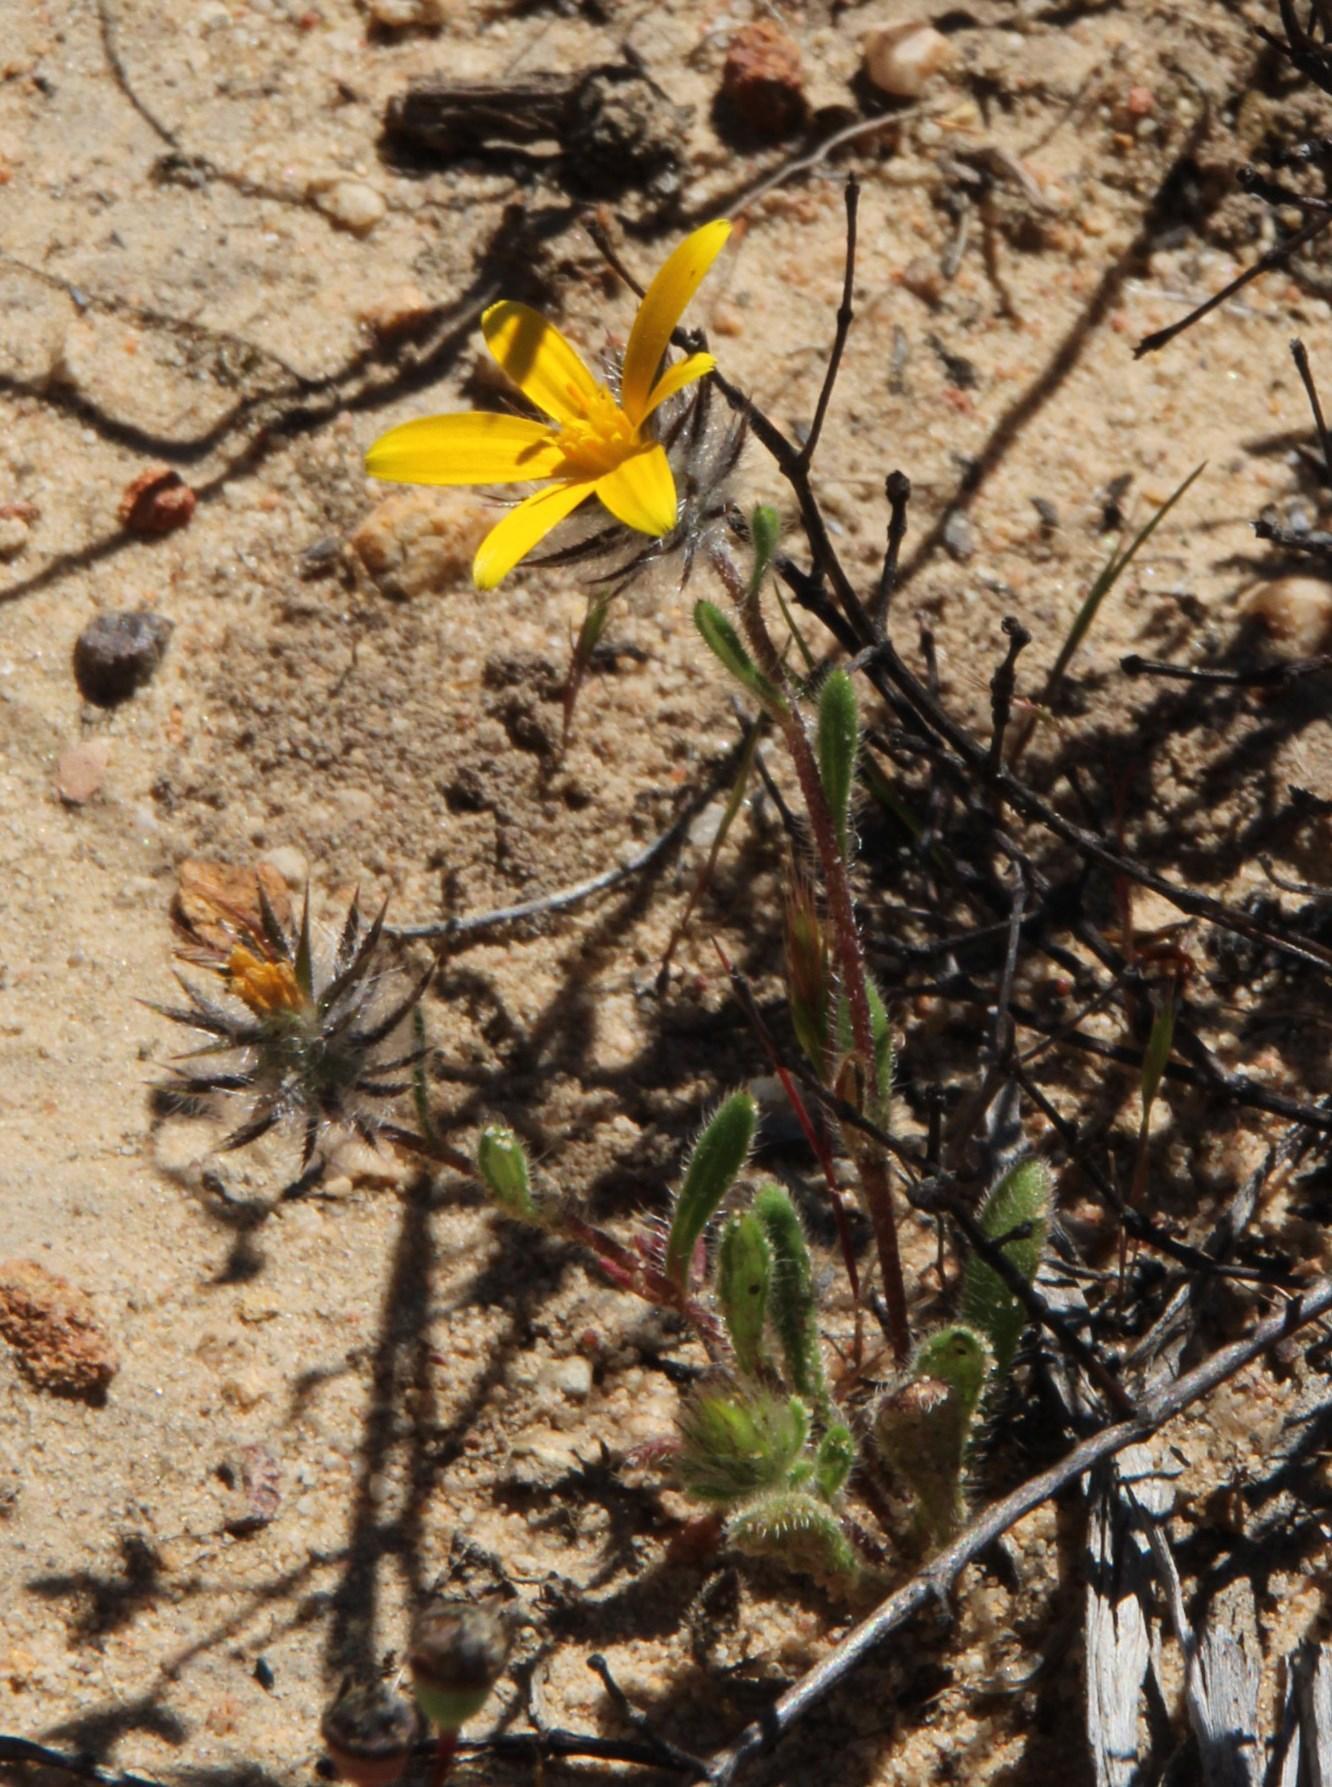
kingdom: Plantae
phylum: Tracheophyta
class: Magnoliopsida
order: Asterales
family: Asteraceae
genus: Gorteria
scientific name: Gorteria piloselloides
